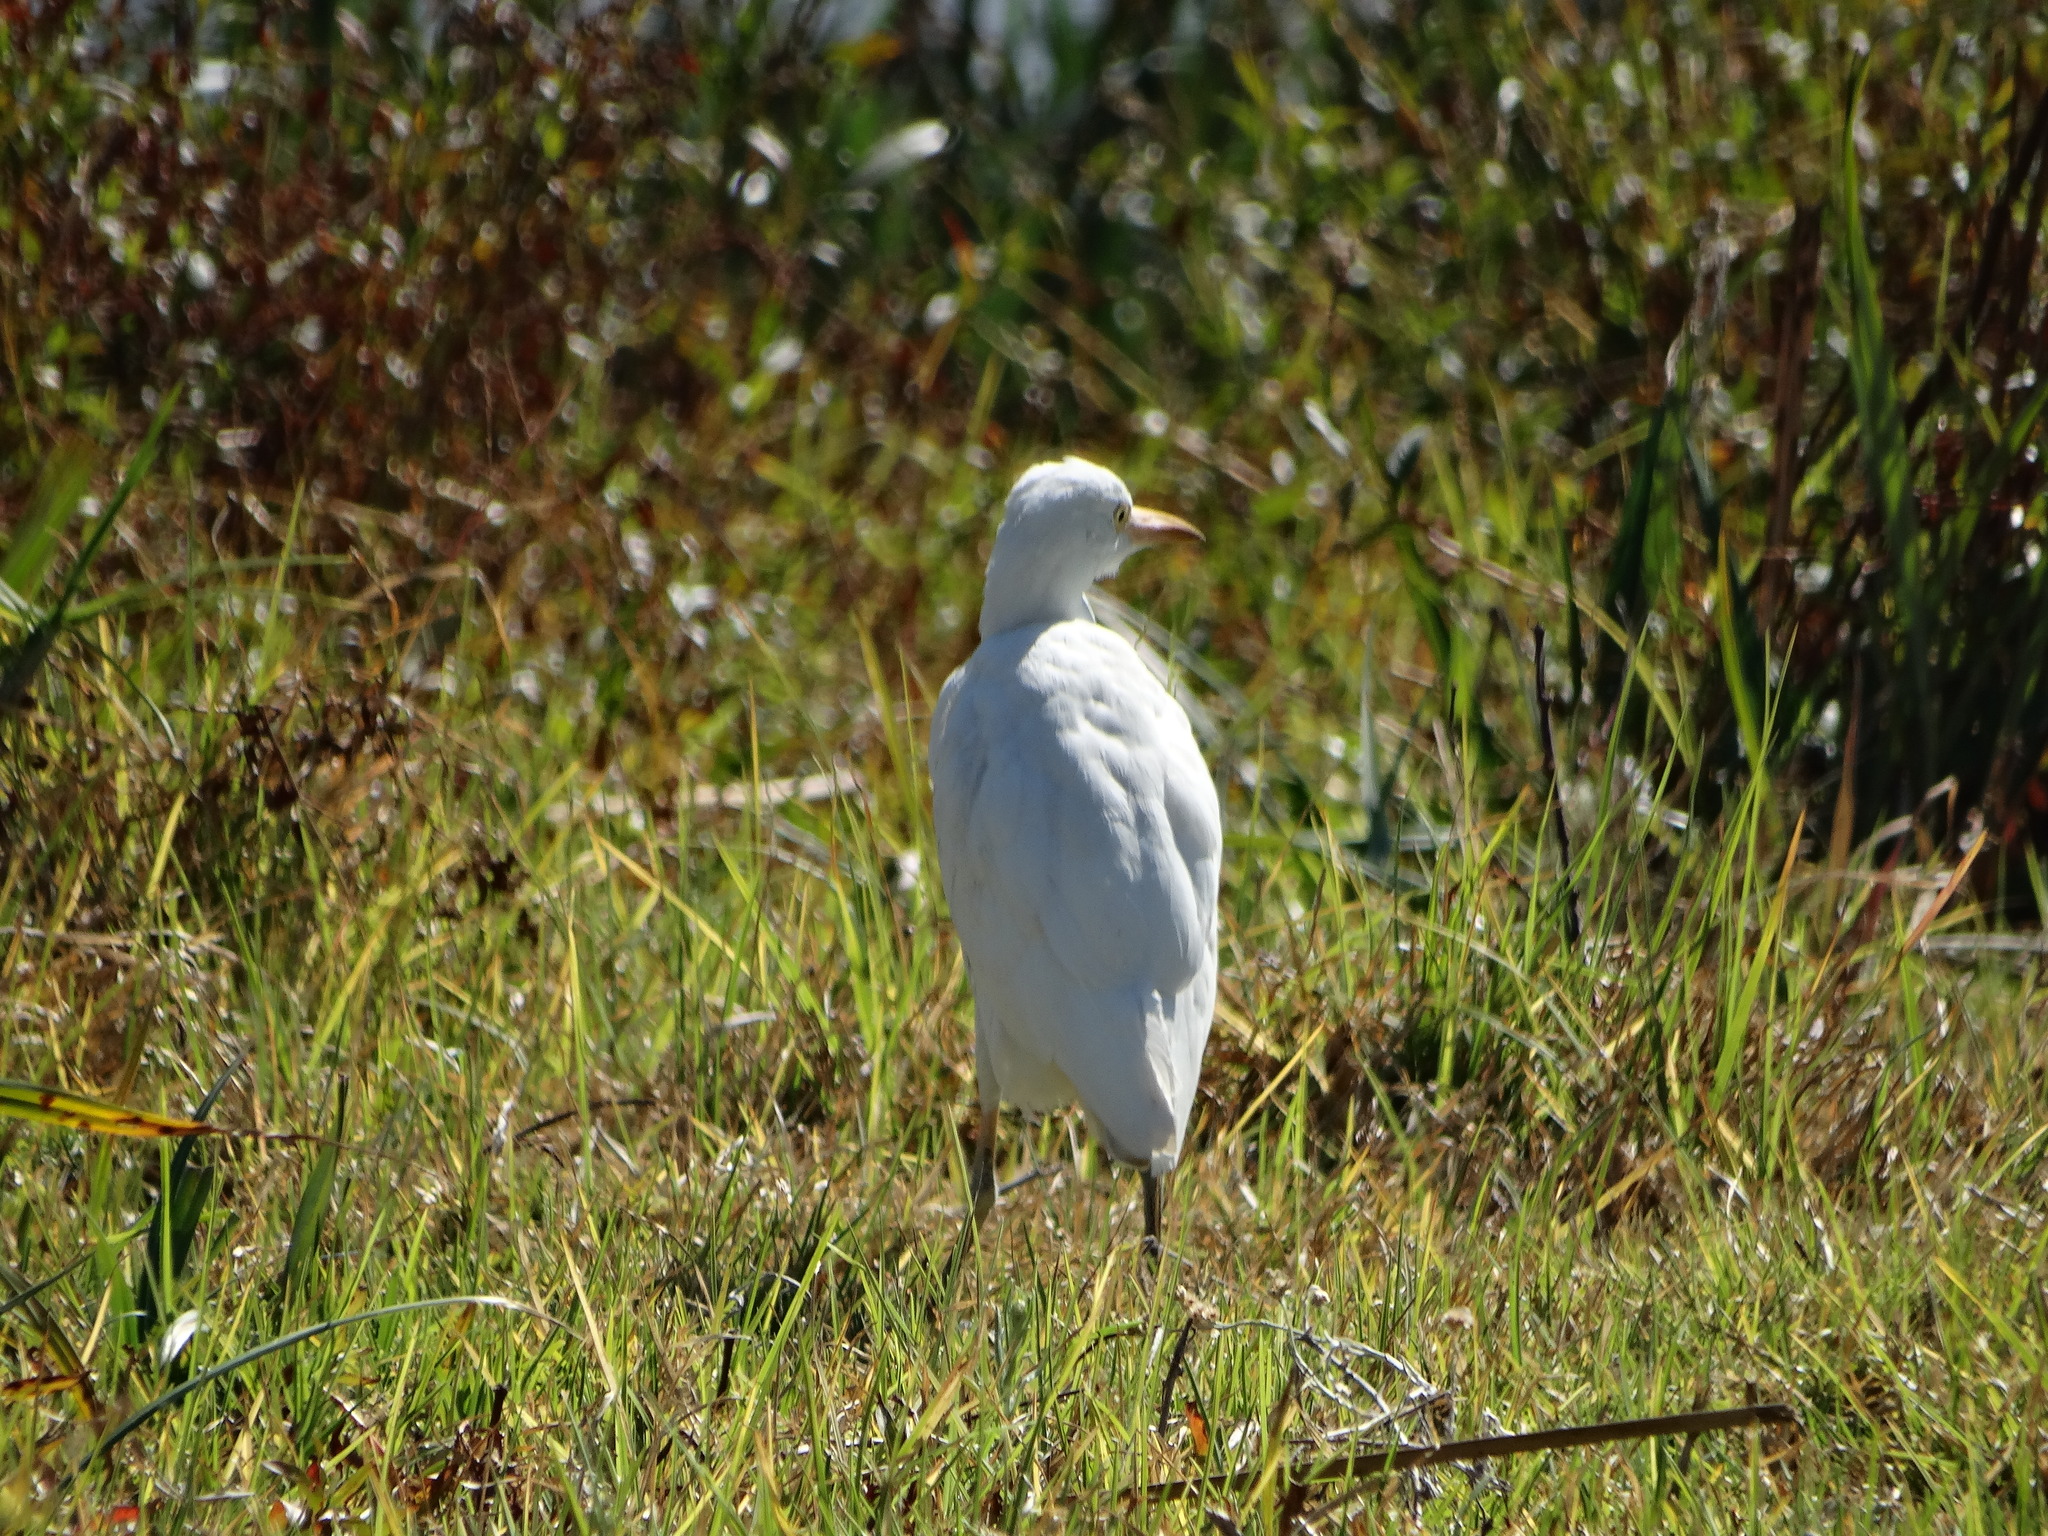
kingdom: Animalia
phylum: Chordata
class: Aves
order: Pelecaniformes
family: Ardeidae
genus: Bubulcus
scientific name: Bubulcus ibis
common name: Cattle egret
